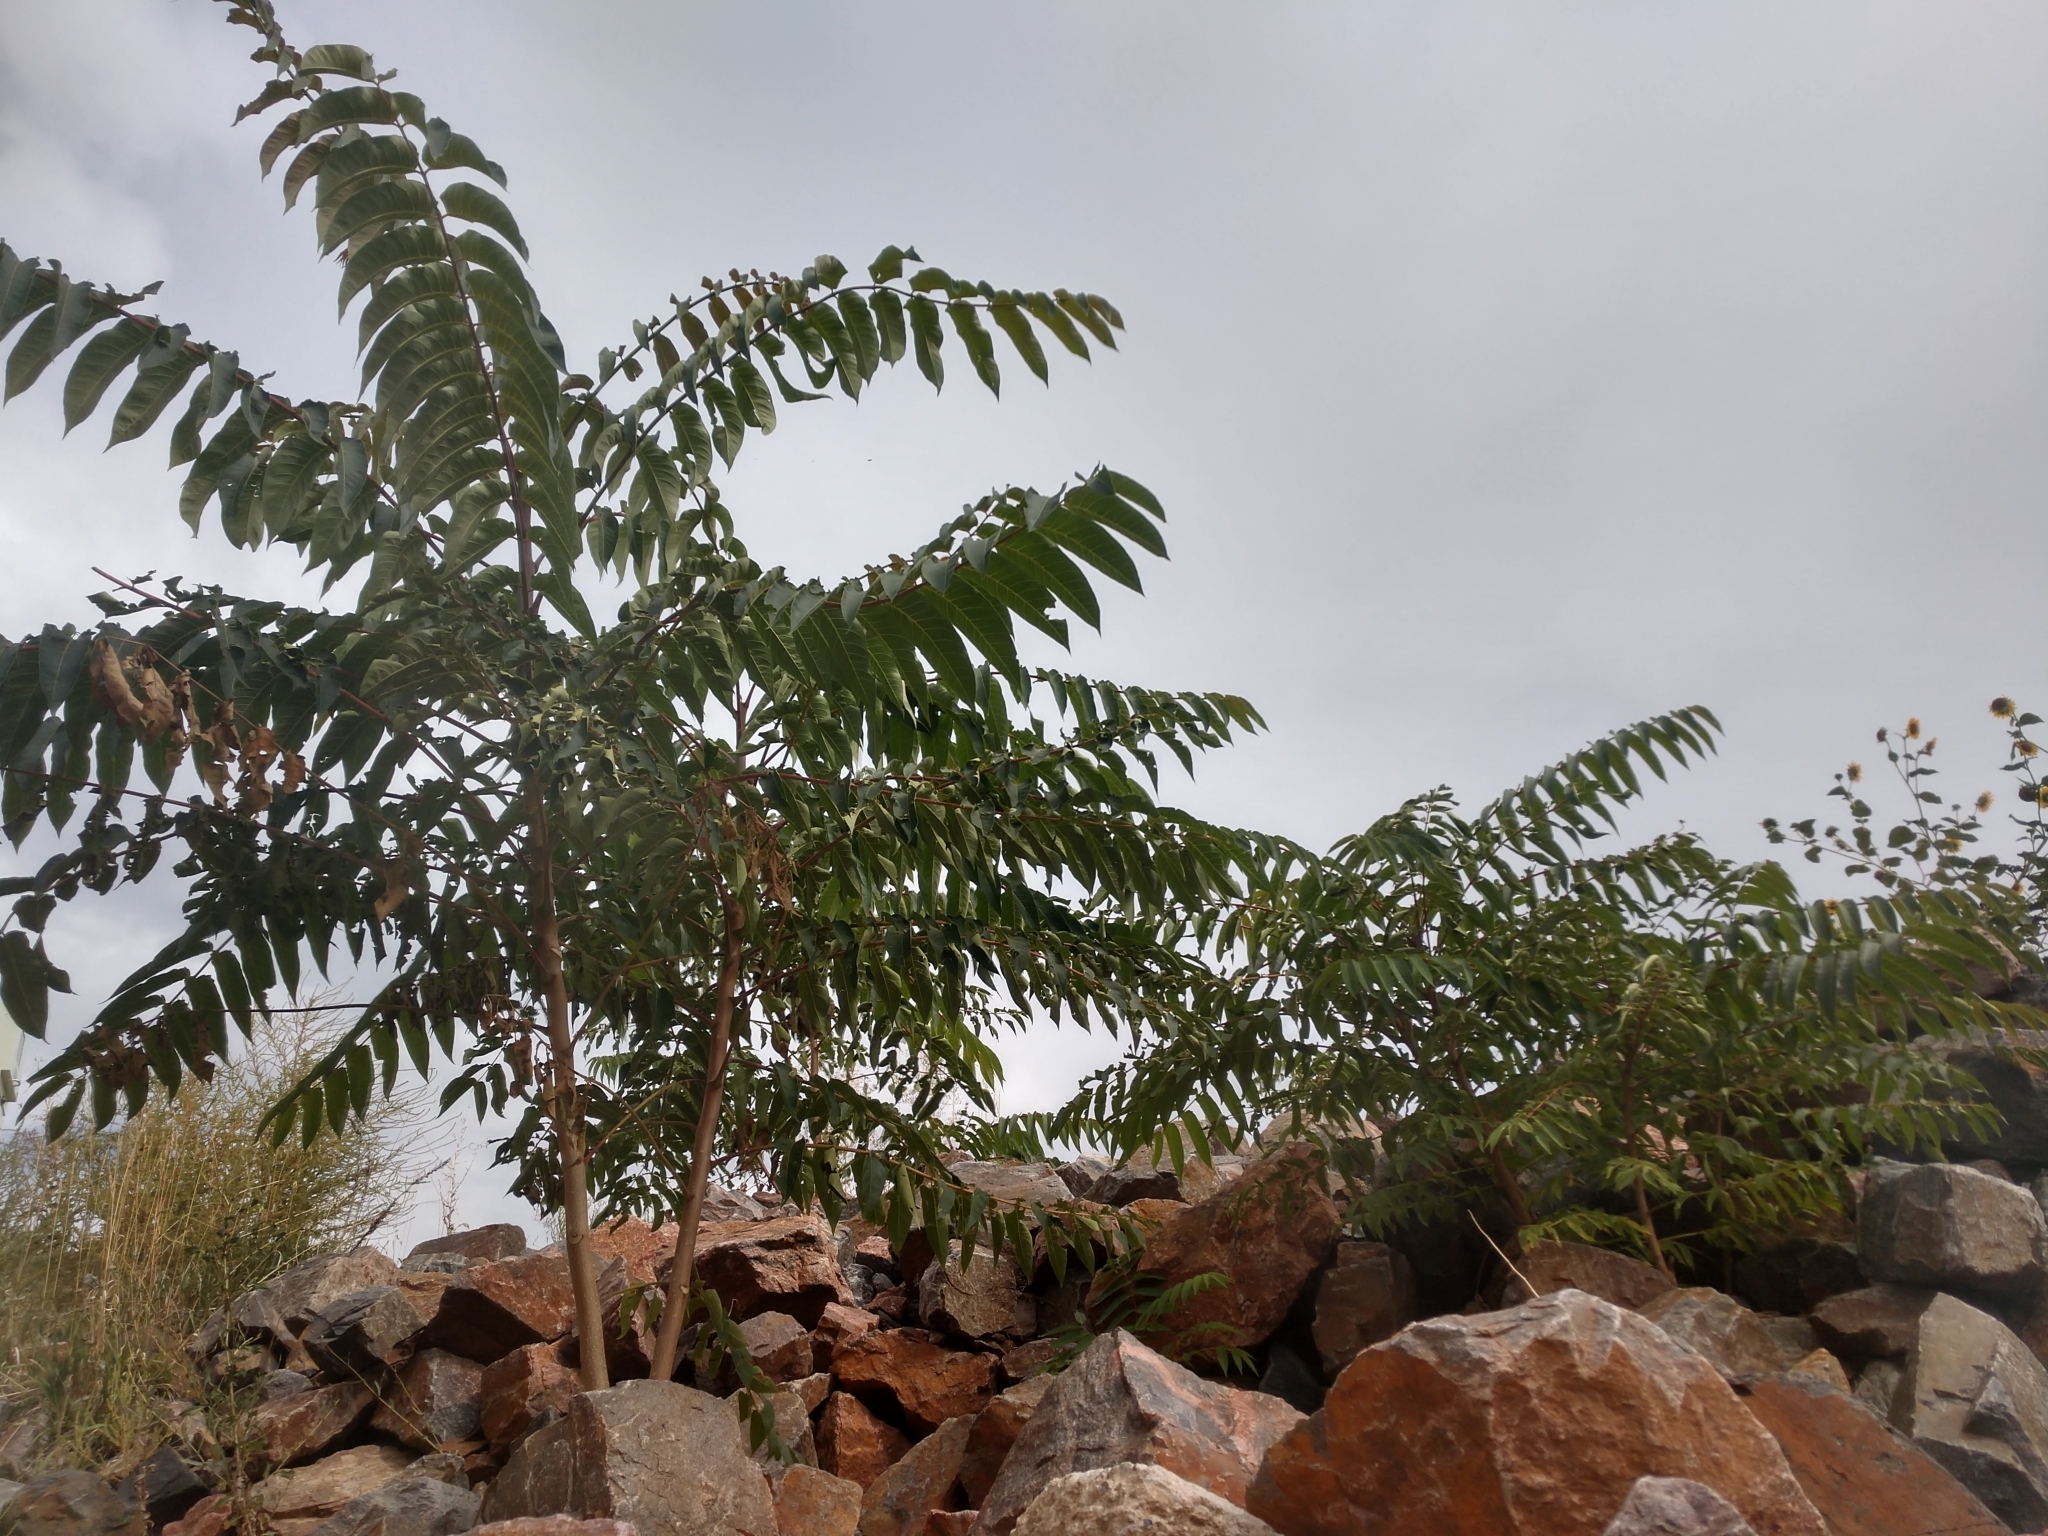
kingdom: Plantae
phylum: Tracheophyta
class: Magnoliopsida
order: Sapindales
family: Simaroubaceae
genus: Ailanthus
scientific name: Ailanthus altissima
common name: Tree-of-heaven
